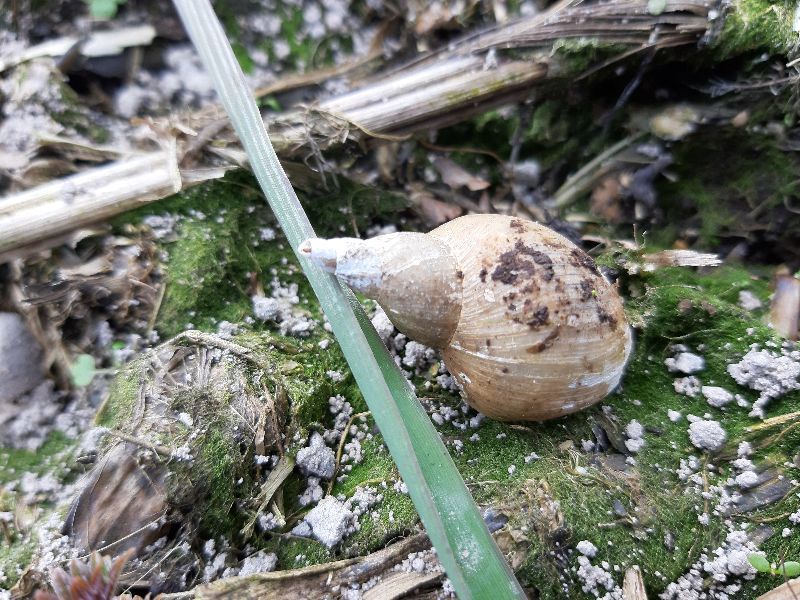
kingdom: Animalia
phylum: Mollusca
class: Gastropoda
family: Lymnaeidae
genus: Lymnaea
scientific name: Lymnaea stagnalis
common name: Great pond snail
